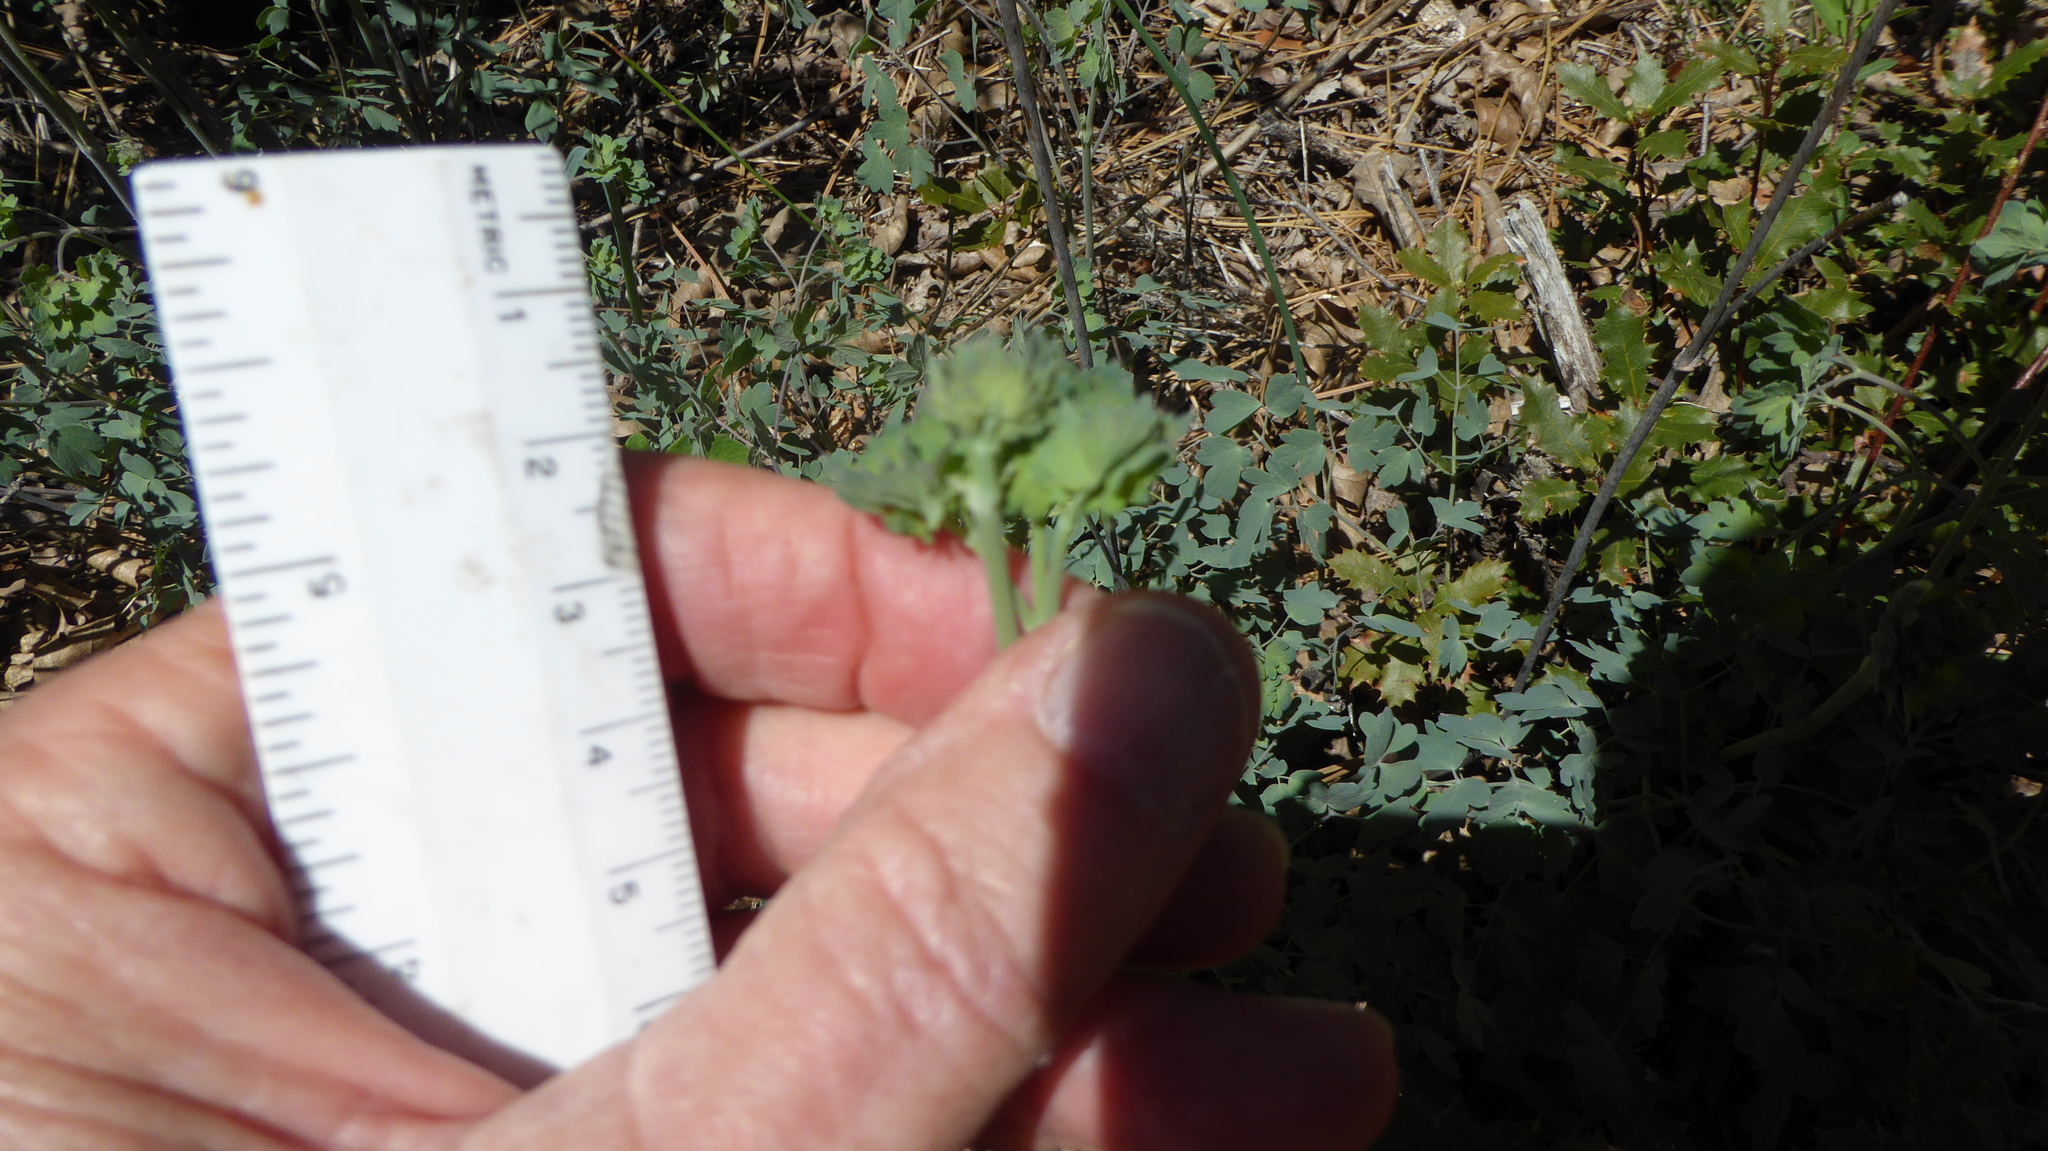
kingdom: Plantae
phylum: Tracheophyta
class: Magnoliopsida
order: Ranunculales
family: Ranunculaceae
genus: Thalictrum
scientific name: Thalictrum fendleri
